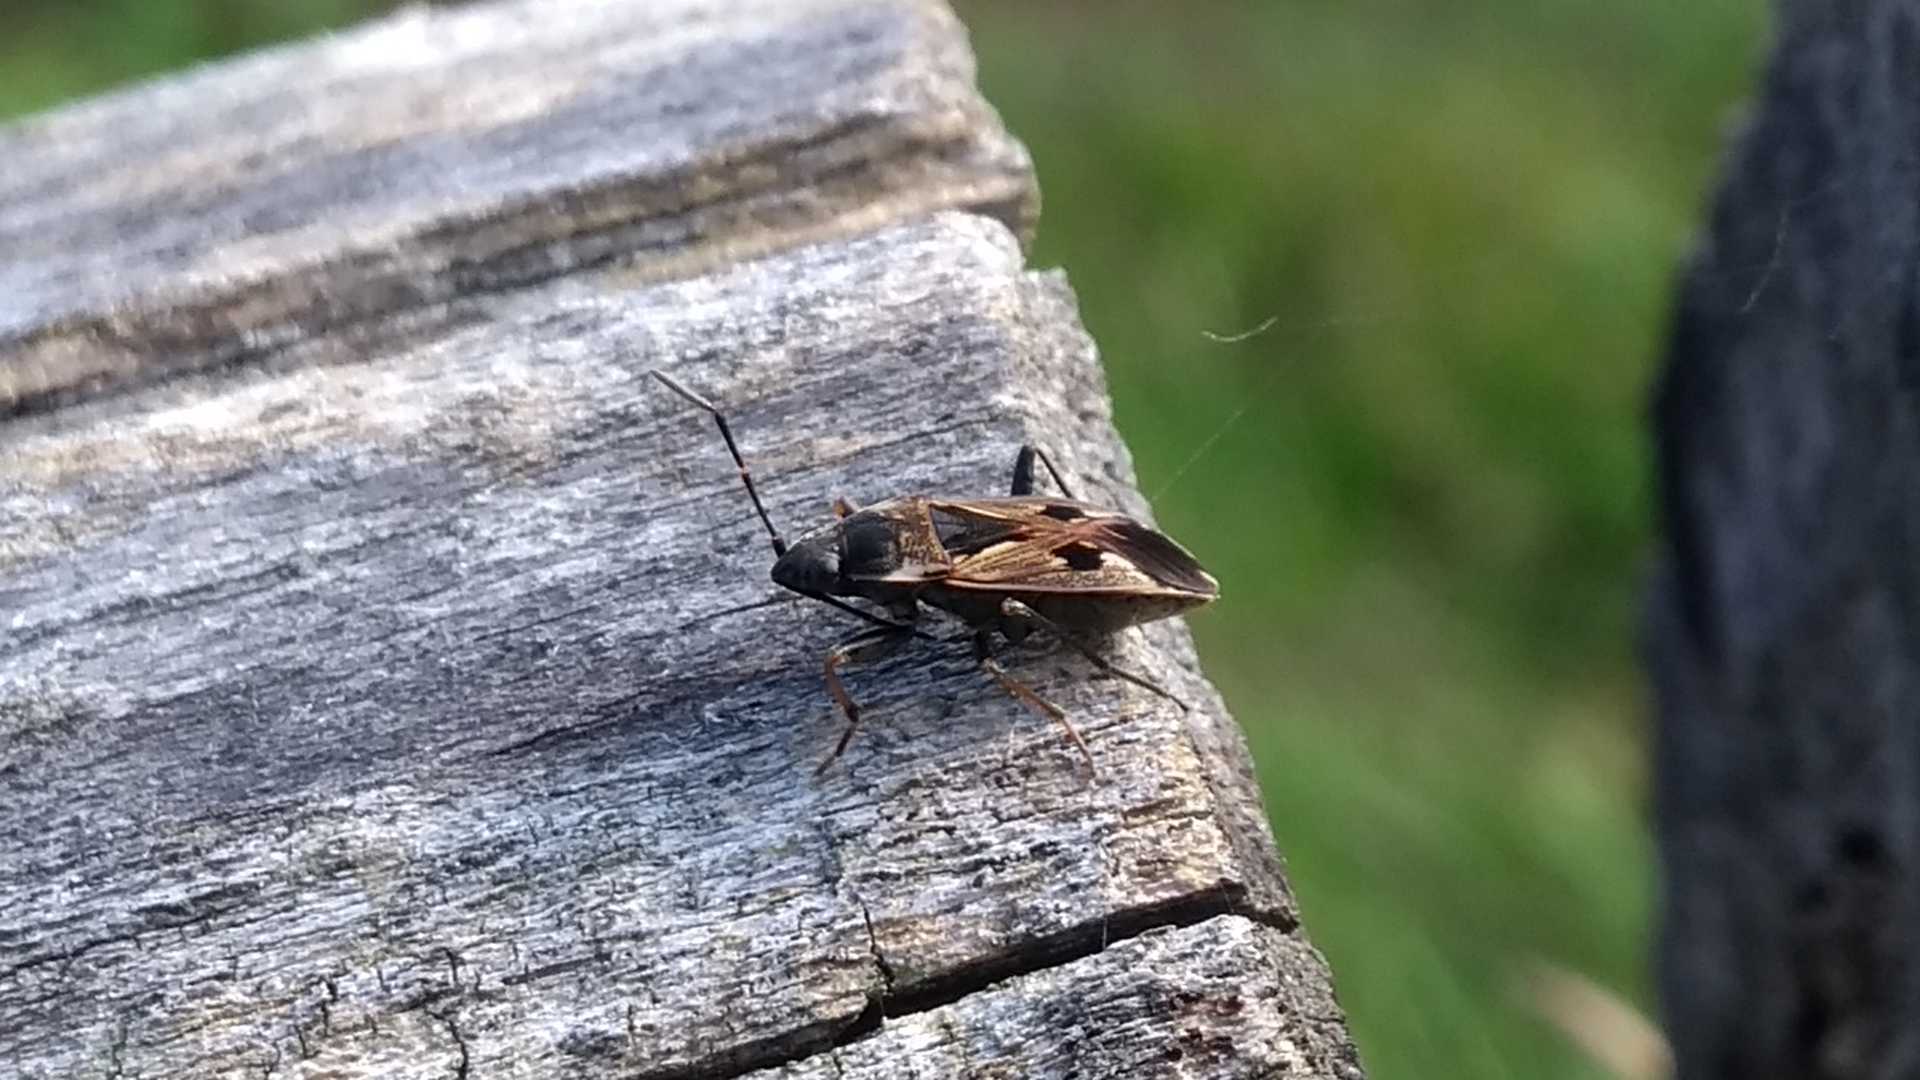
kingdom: Animalia
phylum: Arthropoda
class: Insecta
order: Hemiptera
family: Rhyparochromidae
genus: Rhyparochromus
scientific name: Rhyparochromus vulgaris
